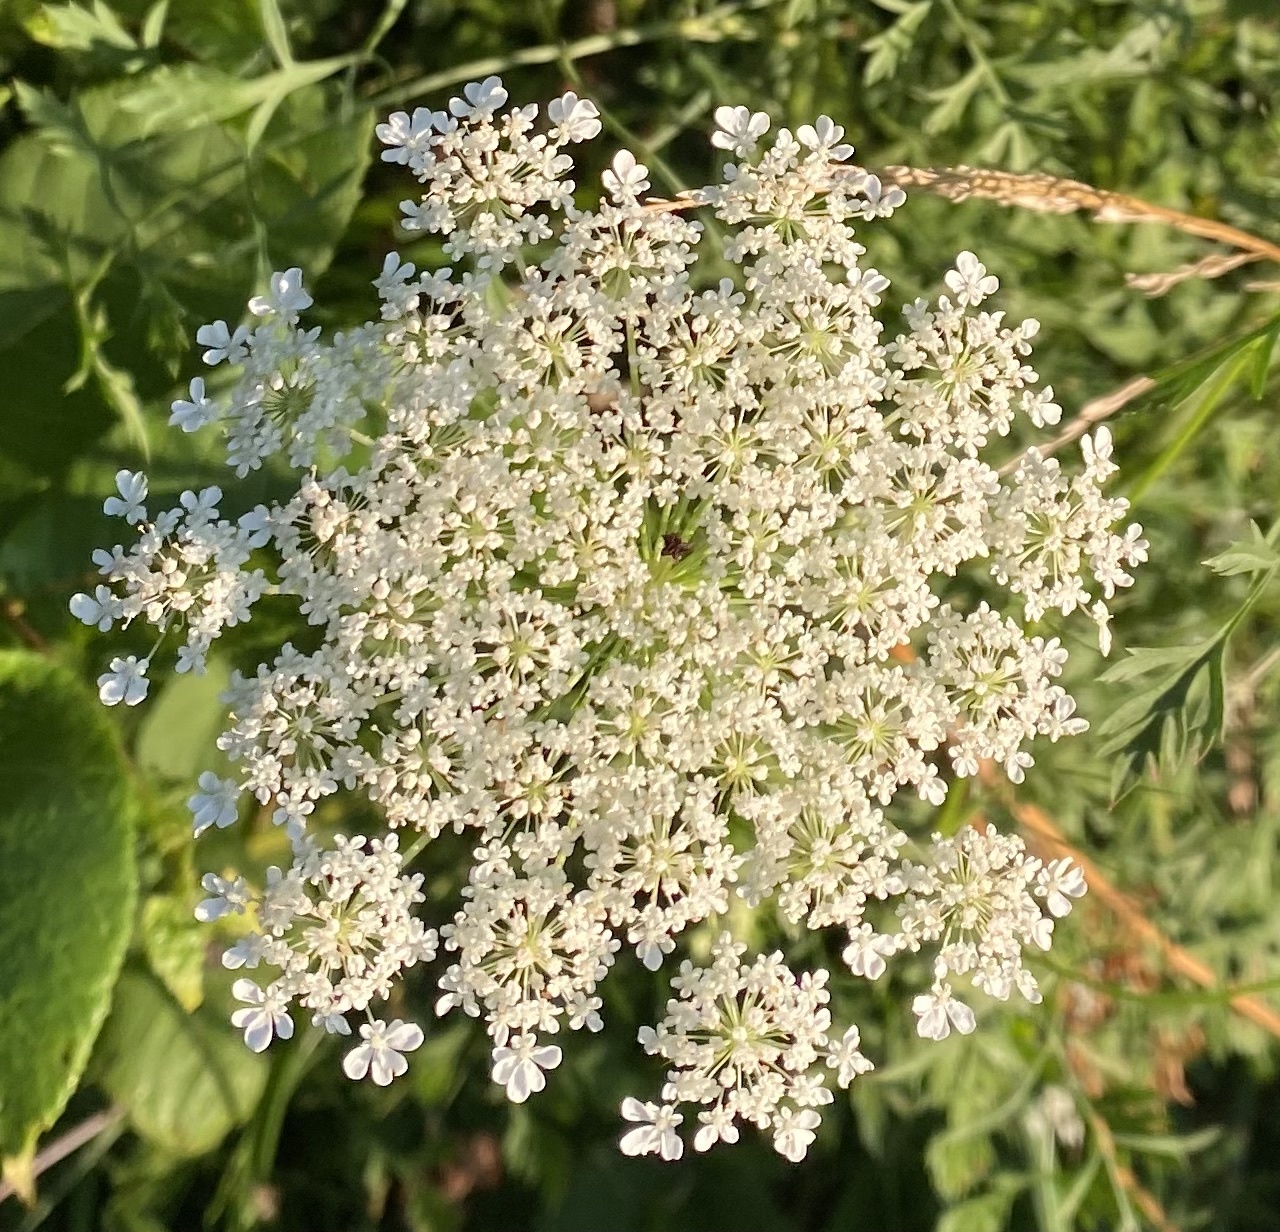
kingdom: Plantae
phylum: Tracheophyta
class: Magnoliopsida
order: Apiales
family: Apiaceae
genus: Daucus
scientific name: Daucus carota
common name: Wild carrot
